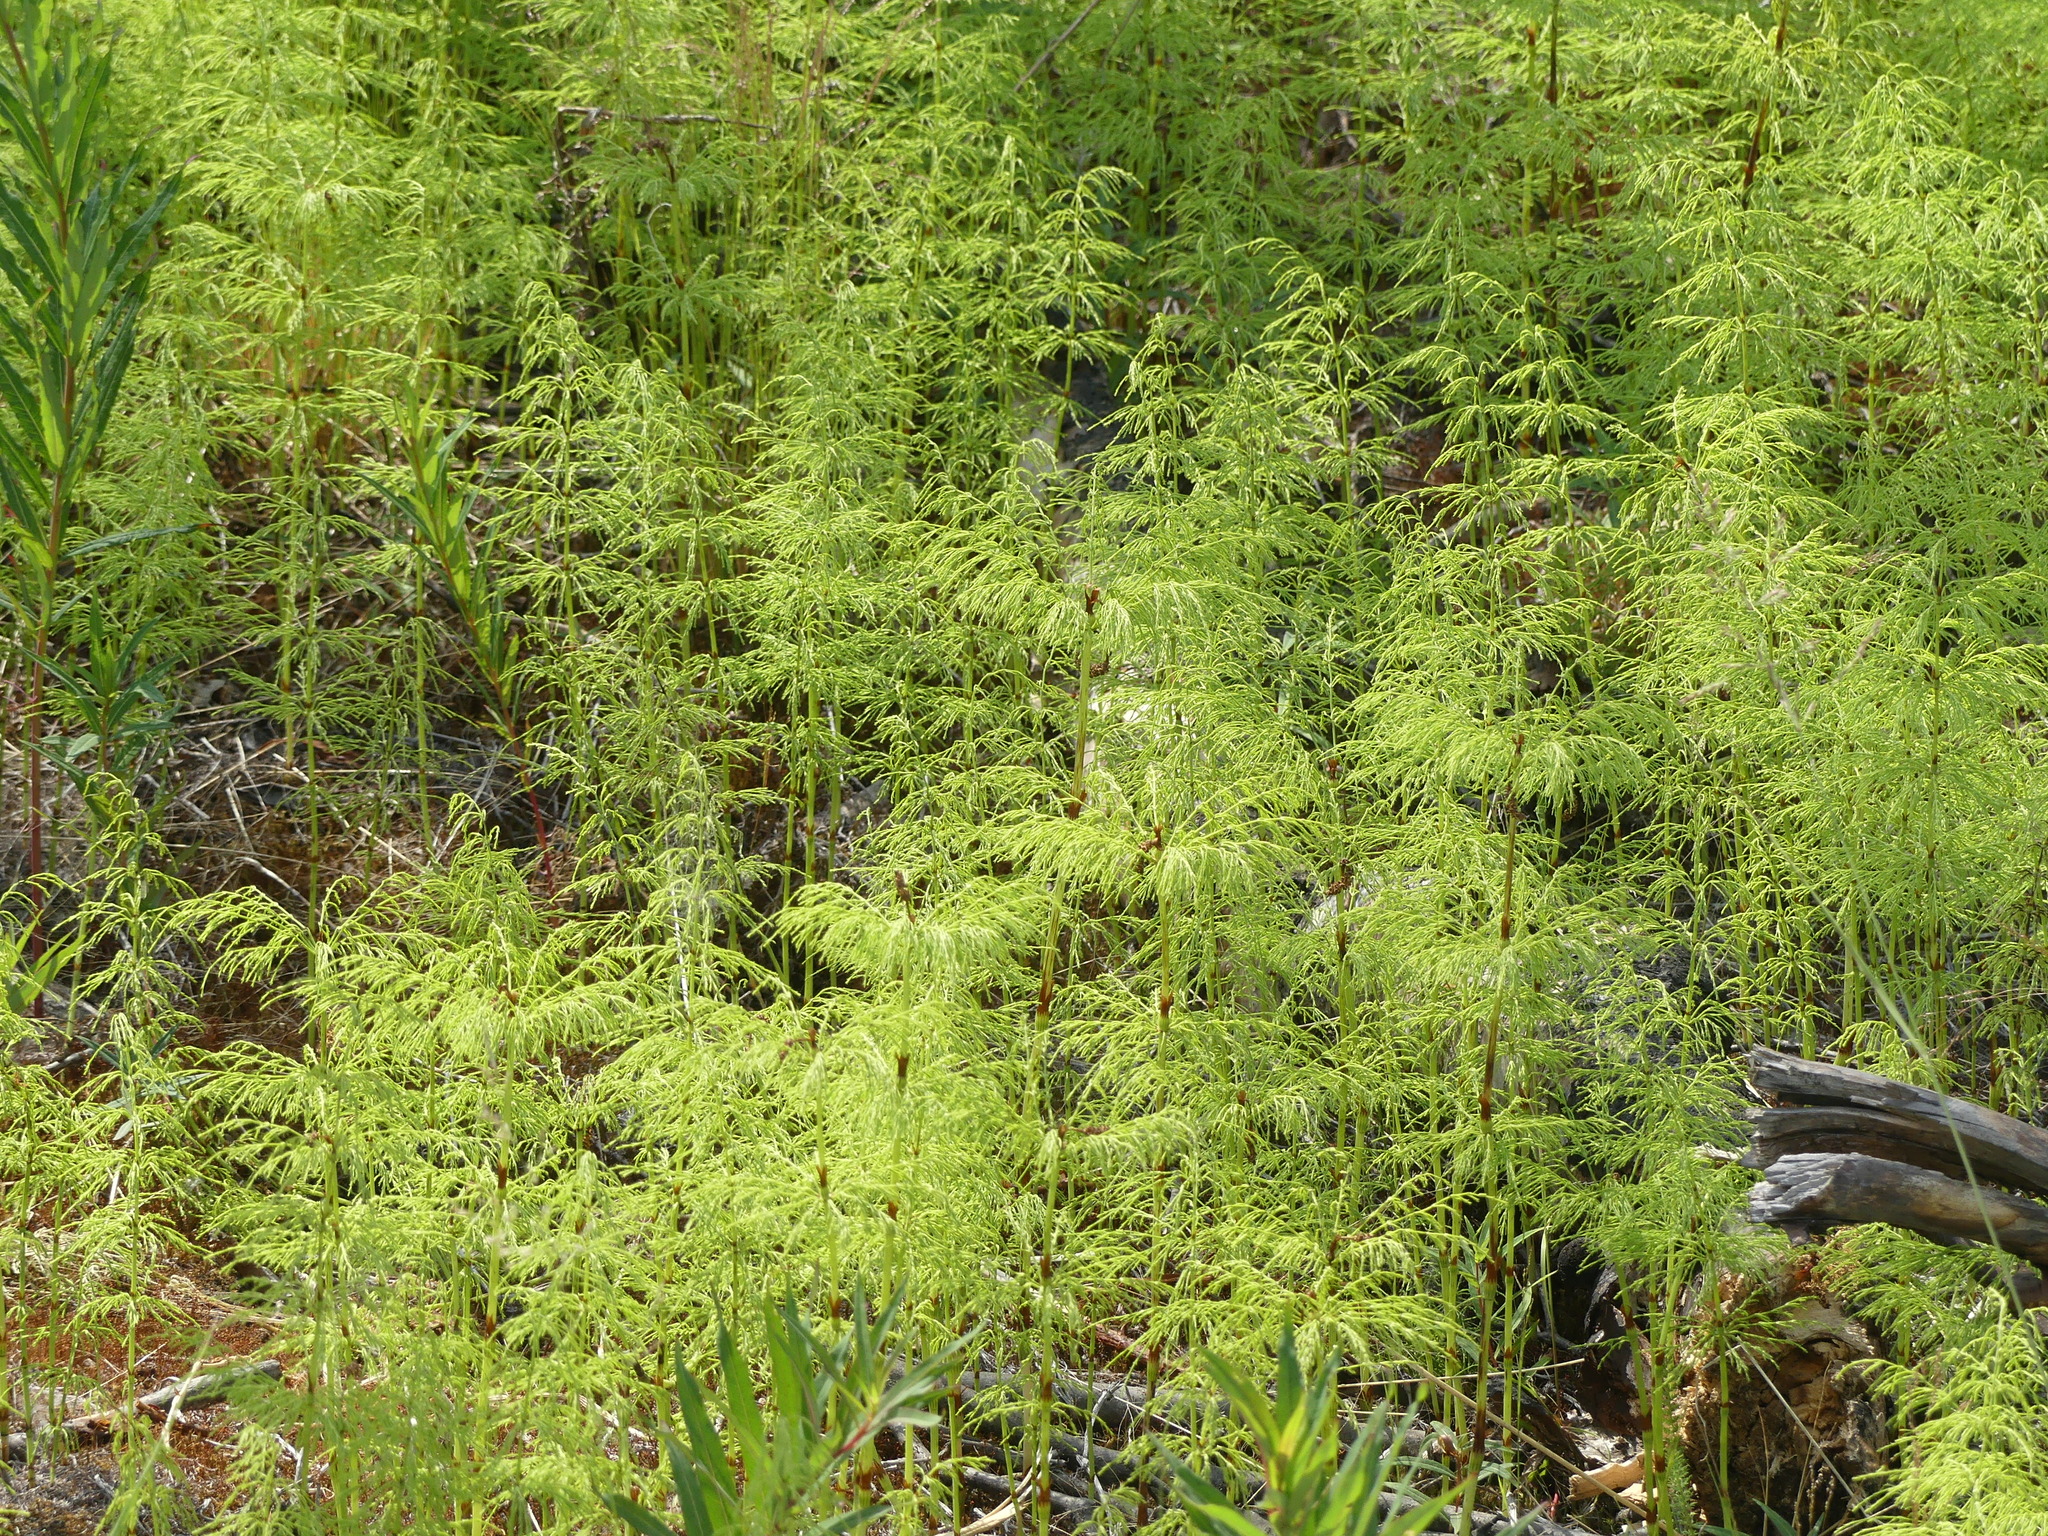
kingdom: Plantae
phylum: Tracheophyta
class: Polypodiopsida
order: Equisetales
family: Equisetaceae
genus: Equisetum
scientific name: Equisetum sylvaticum
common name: Wood horsetail
